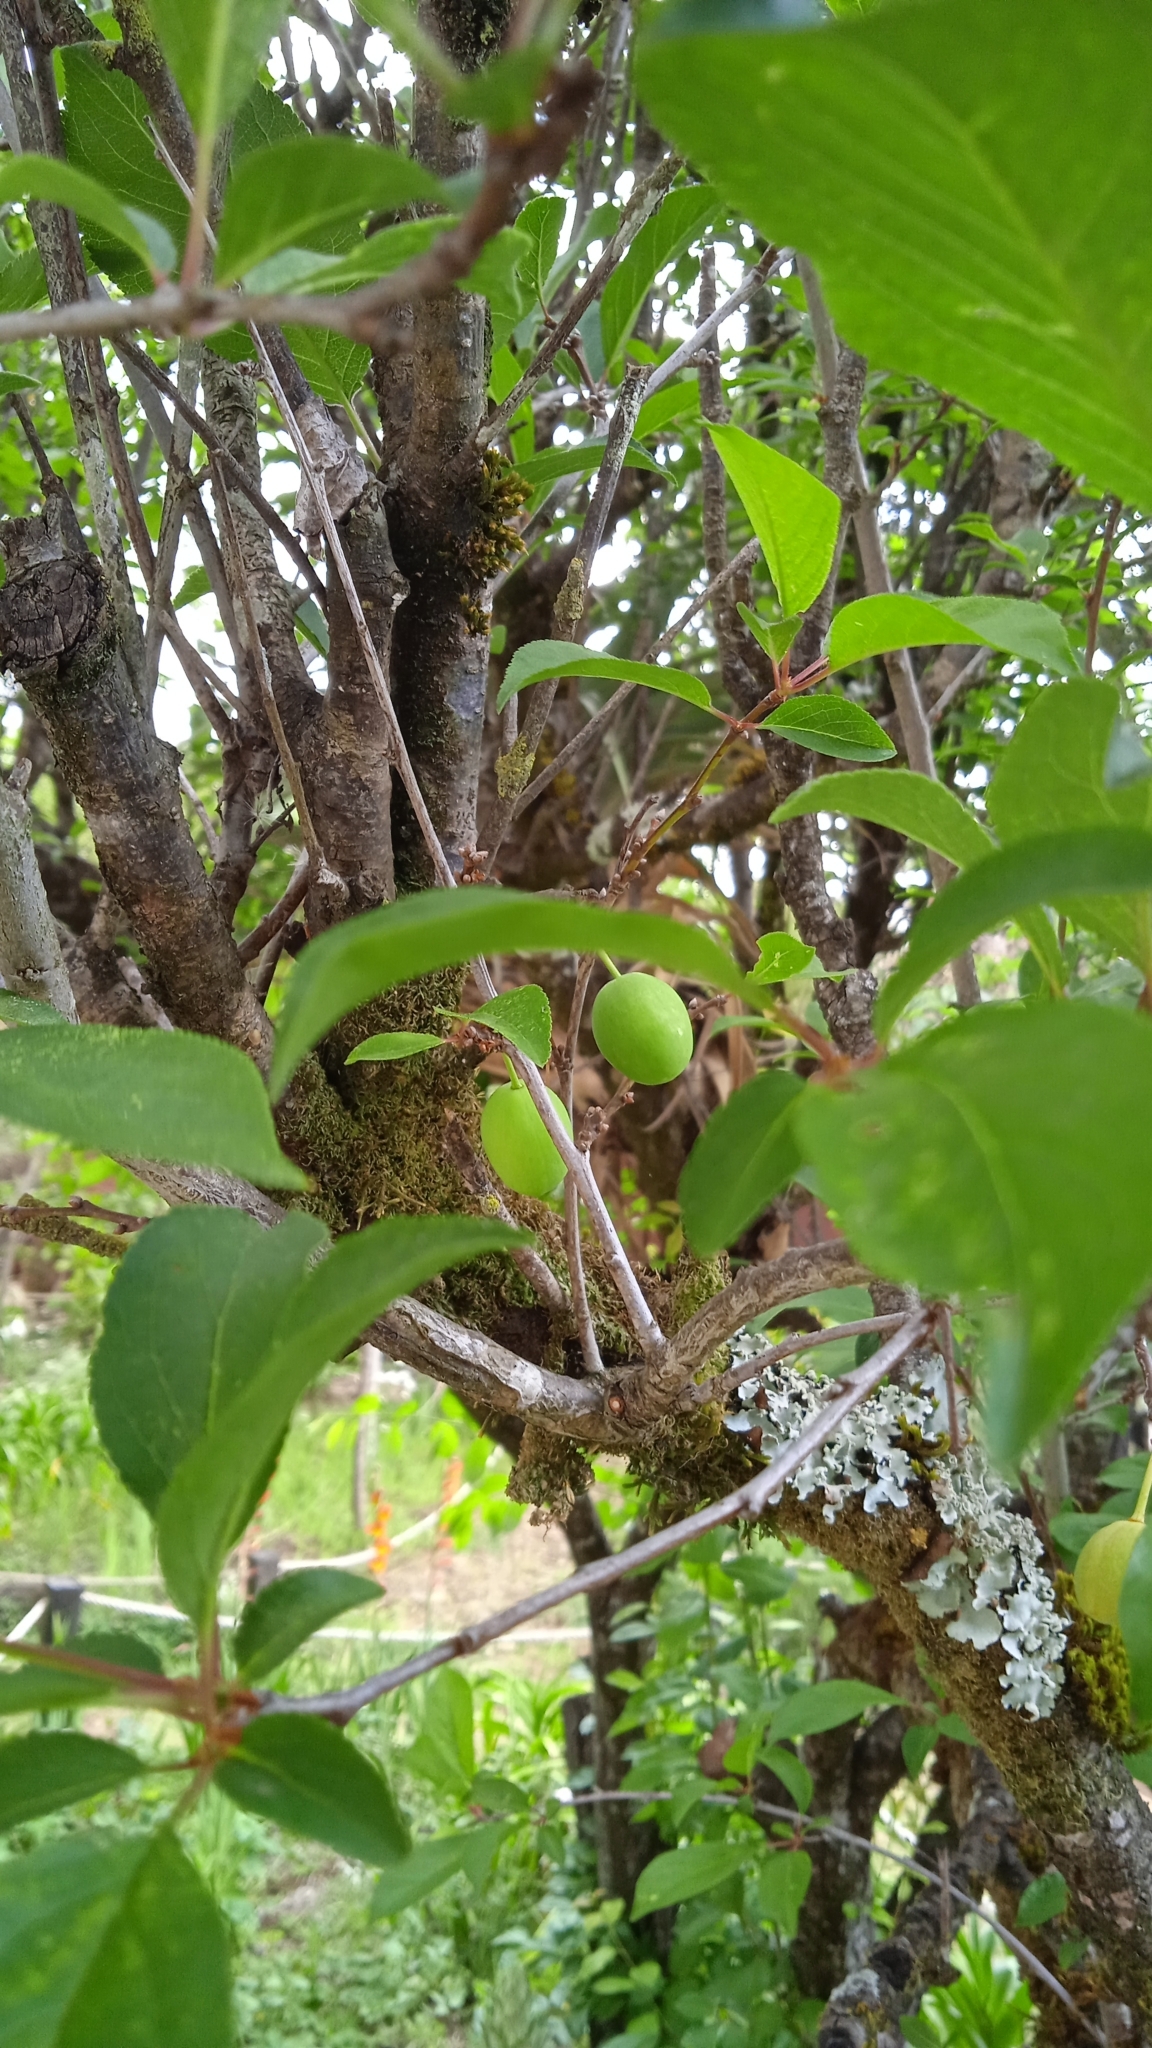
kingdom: Plantae
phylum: Tracheophyta
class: Magnoliopsida
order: Rosales
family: Rosaceae
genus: Prunus
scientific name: Prunus domestica
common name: Wild plum
